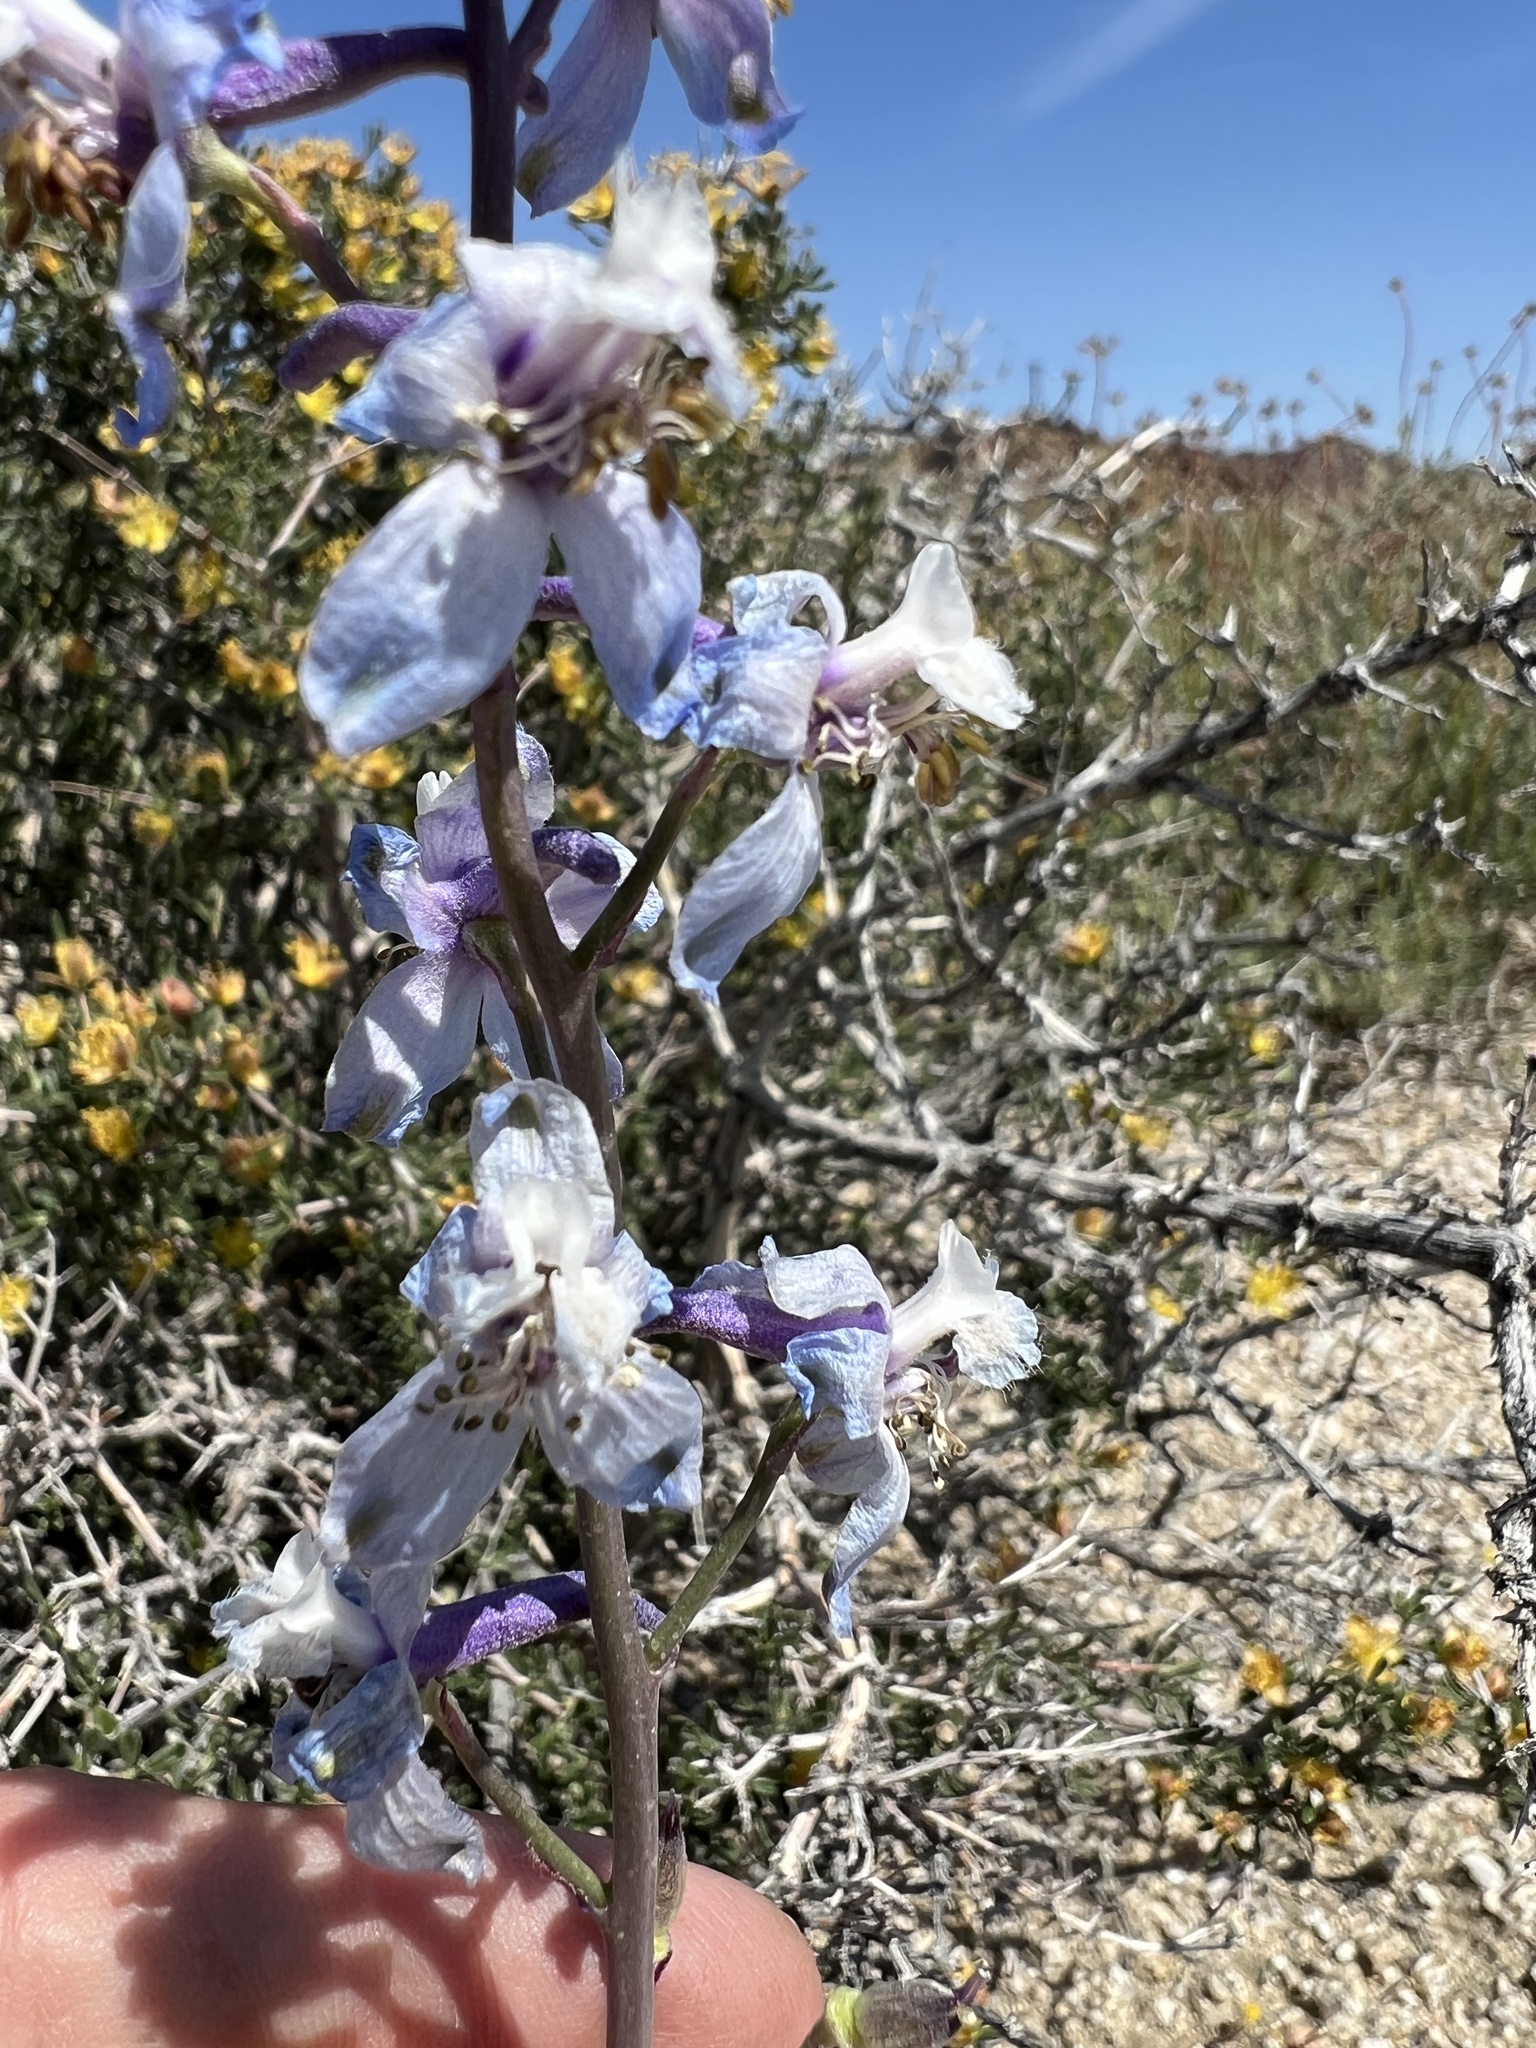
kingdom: Plantae
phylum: Tracheophyta
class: Magnoliopsida
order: Ranunculales
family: Ranunculaceae
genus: Delphinium
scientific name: Delphinium parishii
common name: Apache larkspur
